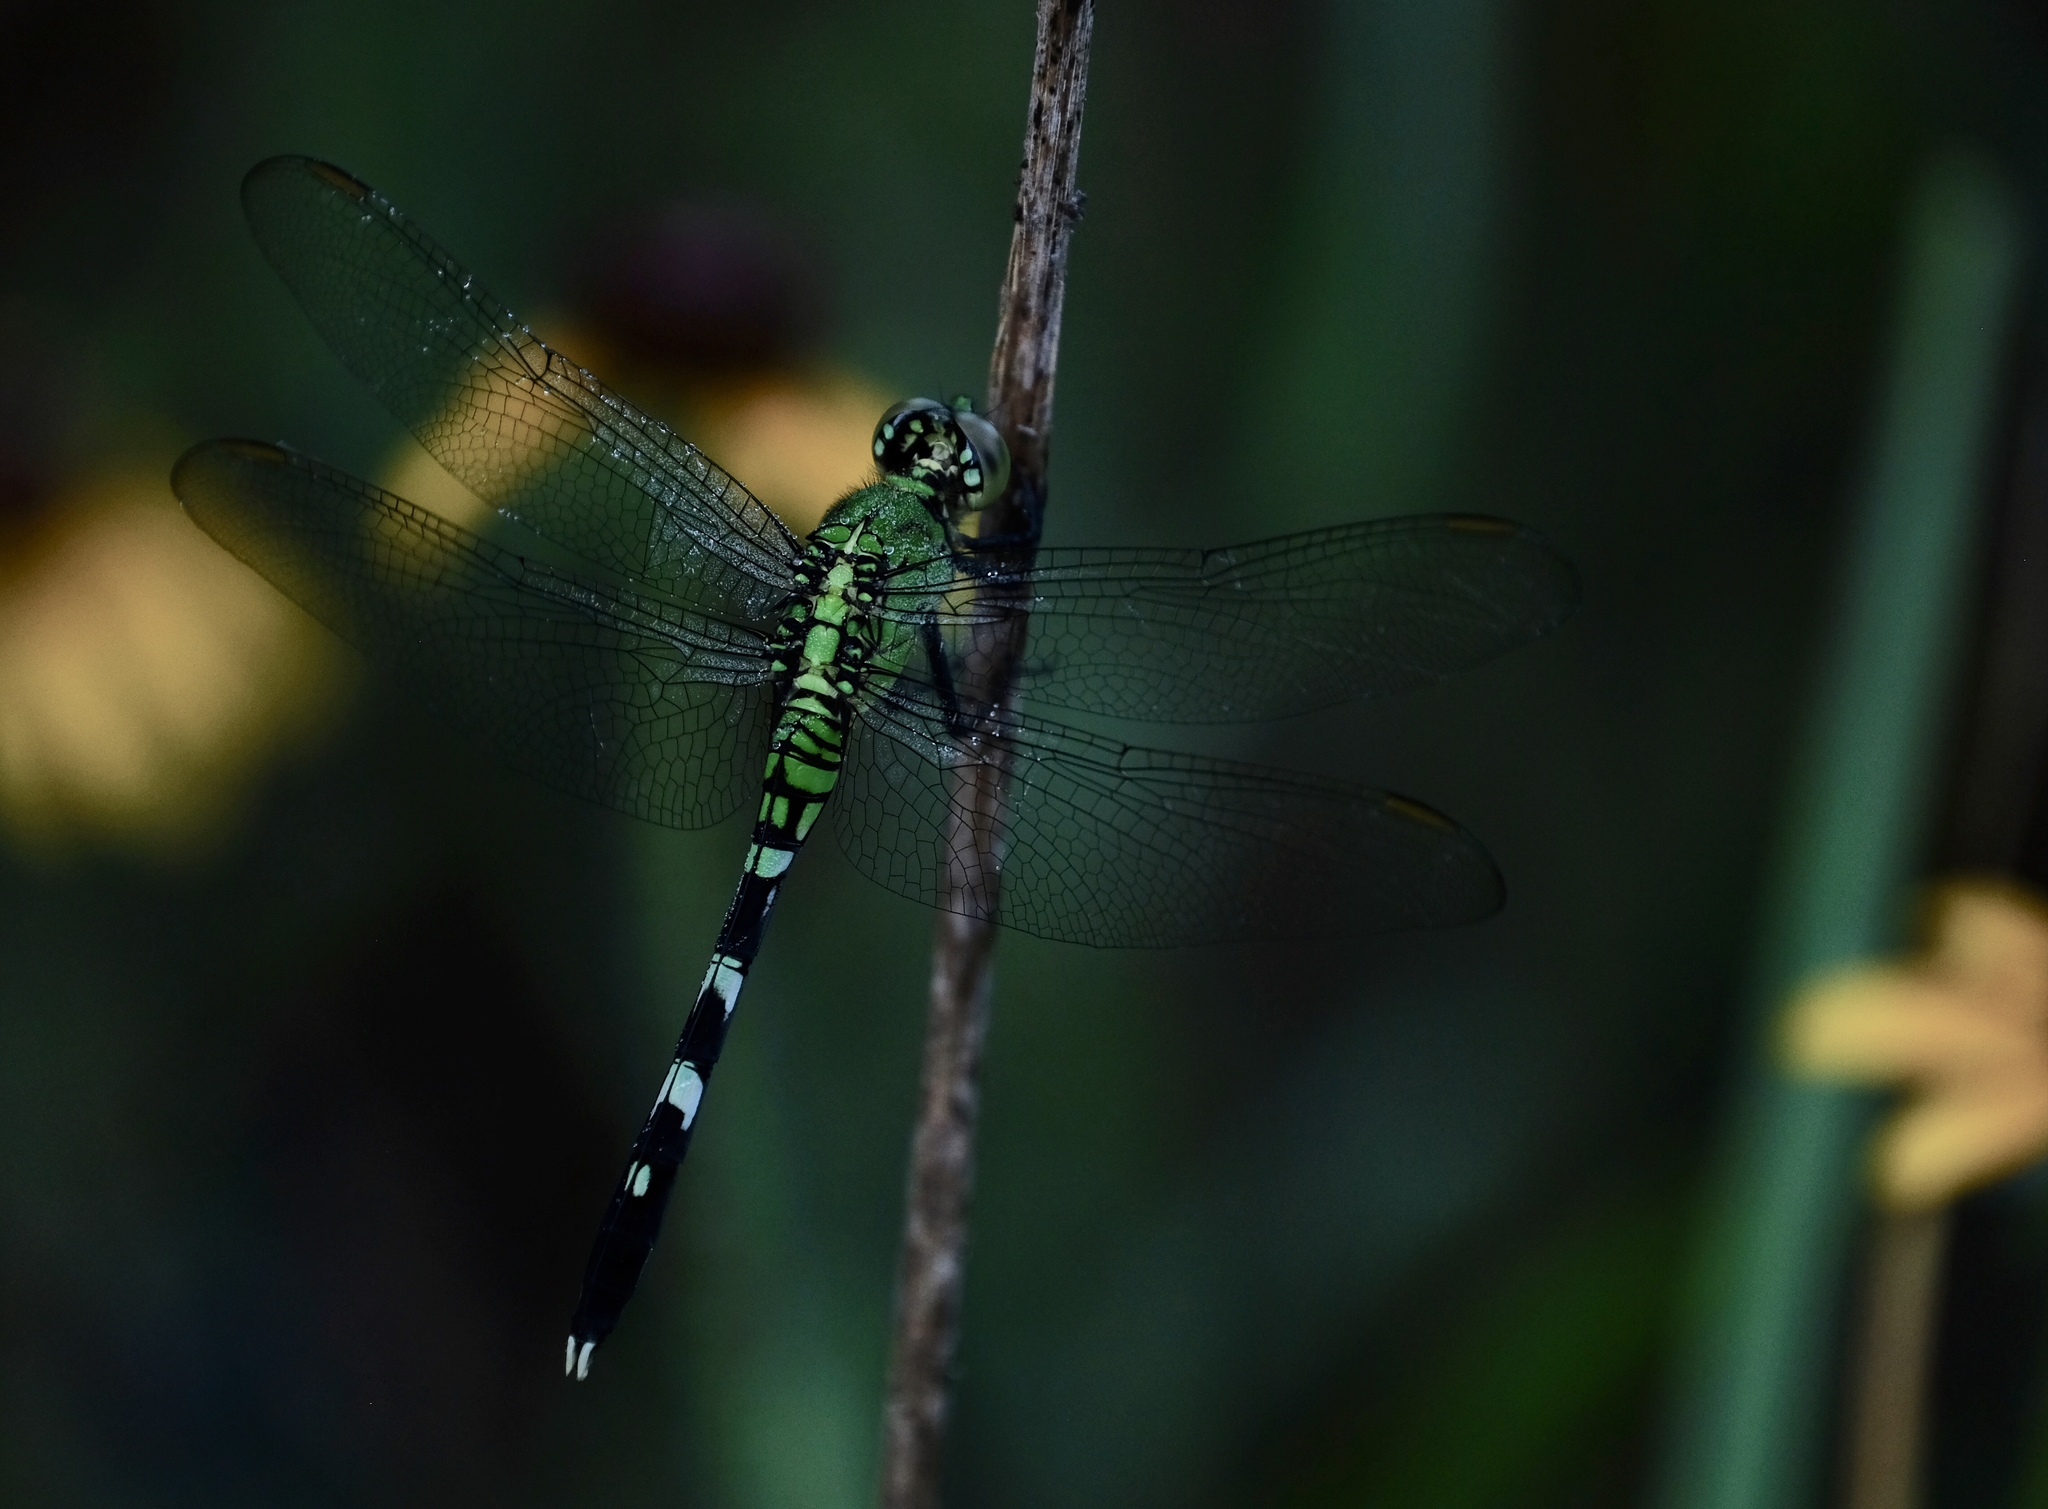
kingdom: Animalia
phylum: Arthropoda
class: Insecta
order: Odonata
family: Libellulidae
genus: Erythemis
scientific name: Erythemis simplicicollis
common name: Eastern pondhawk
